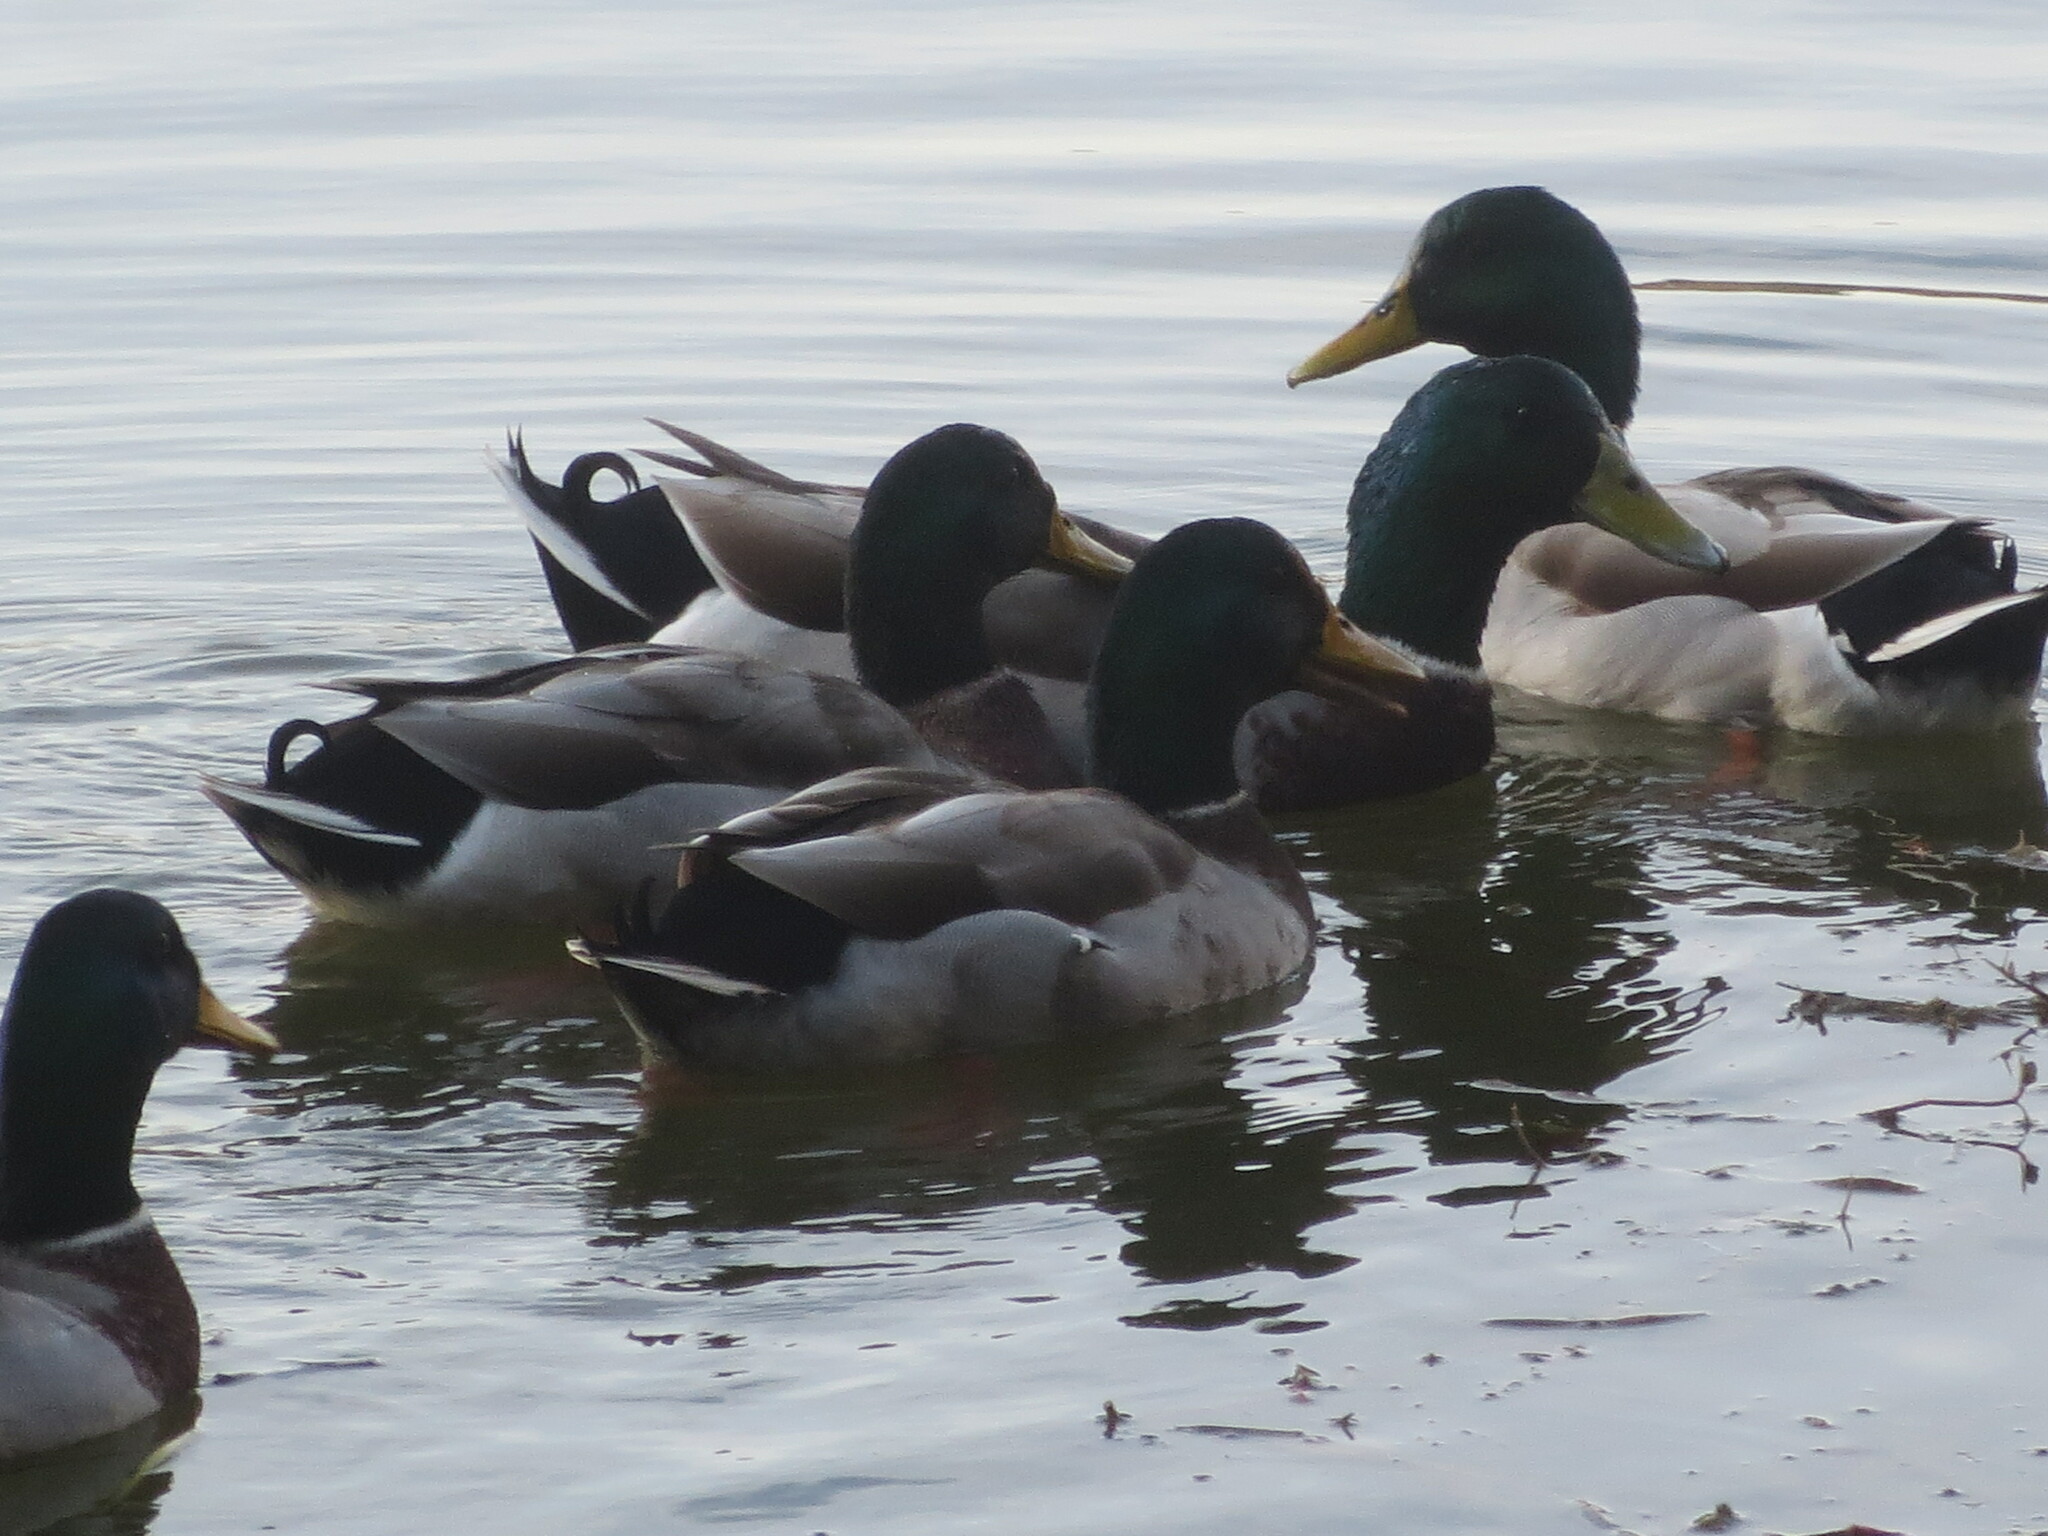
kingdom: Animalia
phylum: Chordata
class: Aves
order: Anseriformes
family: Anatidae
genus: Anas
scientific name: Anas platyrhynchos
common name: Mallard
